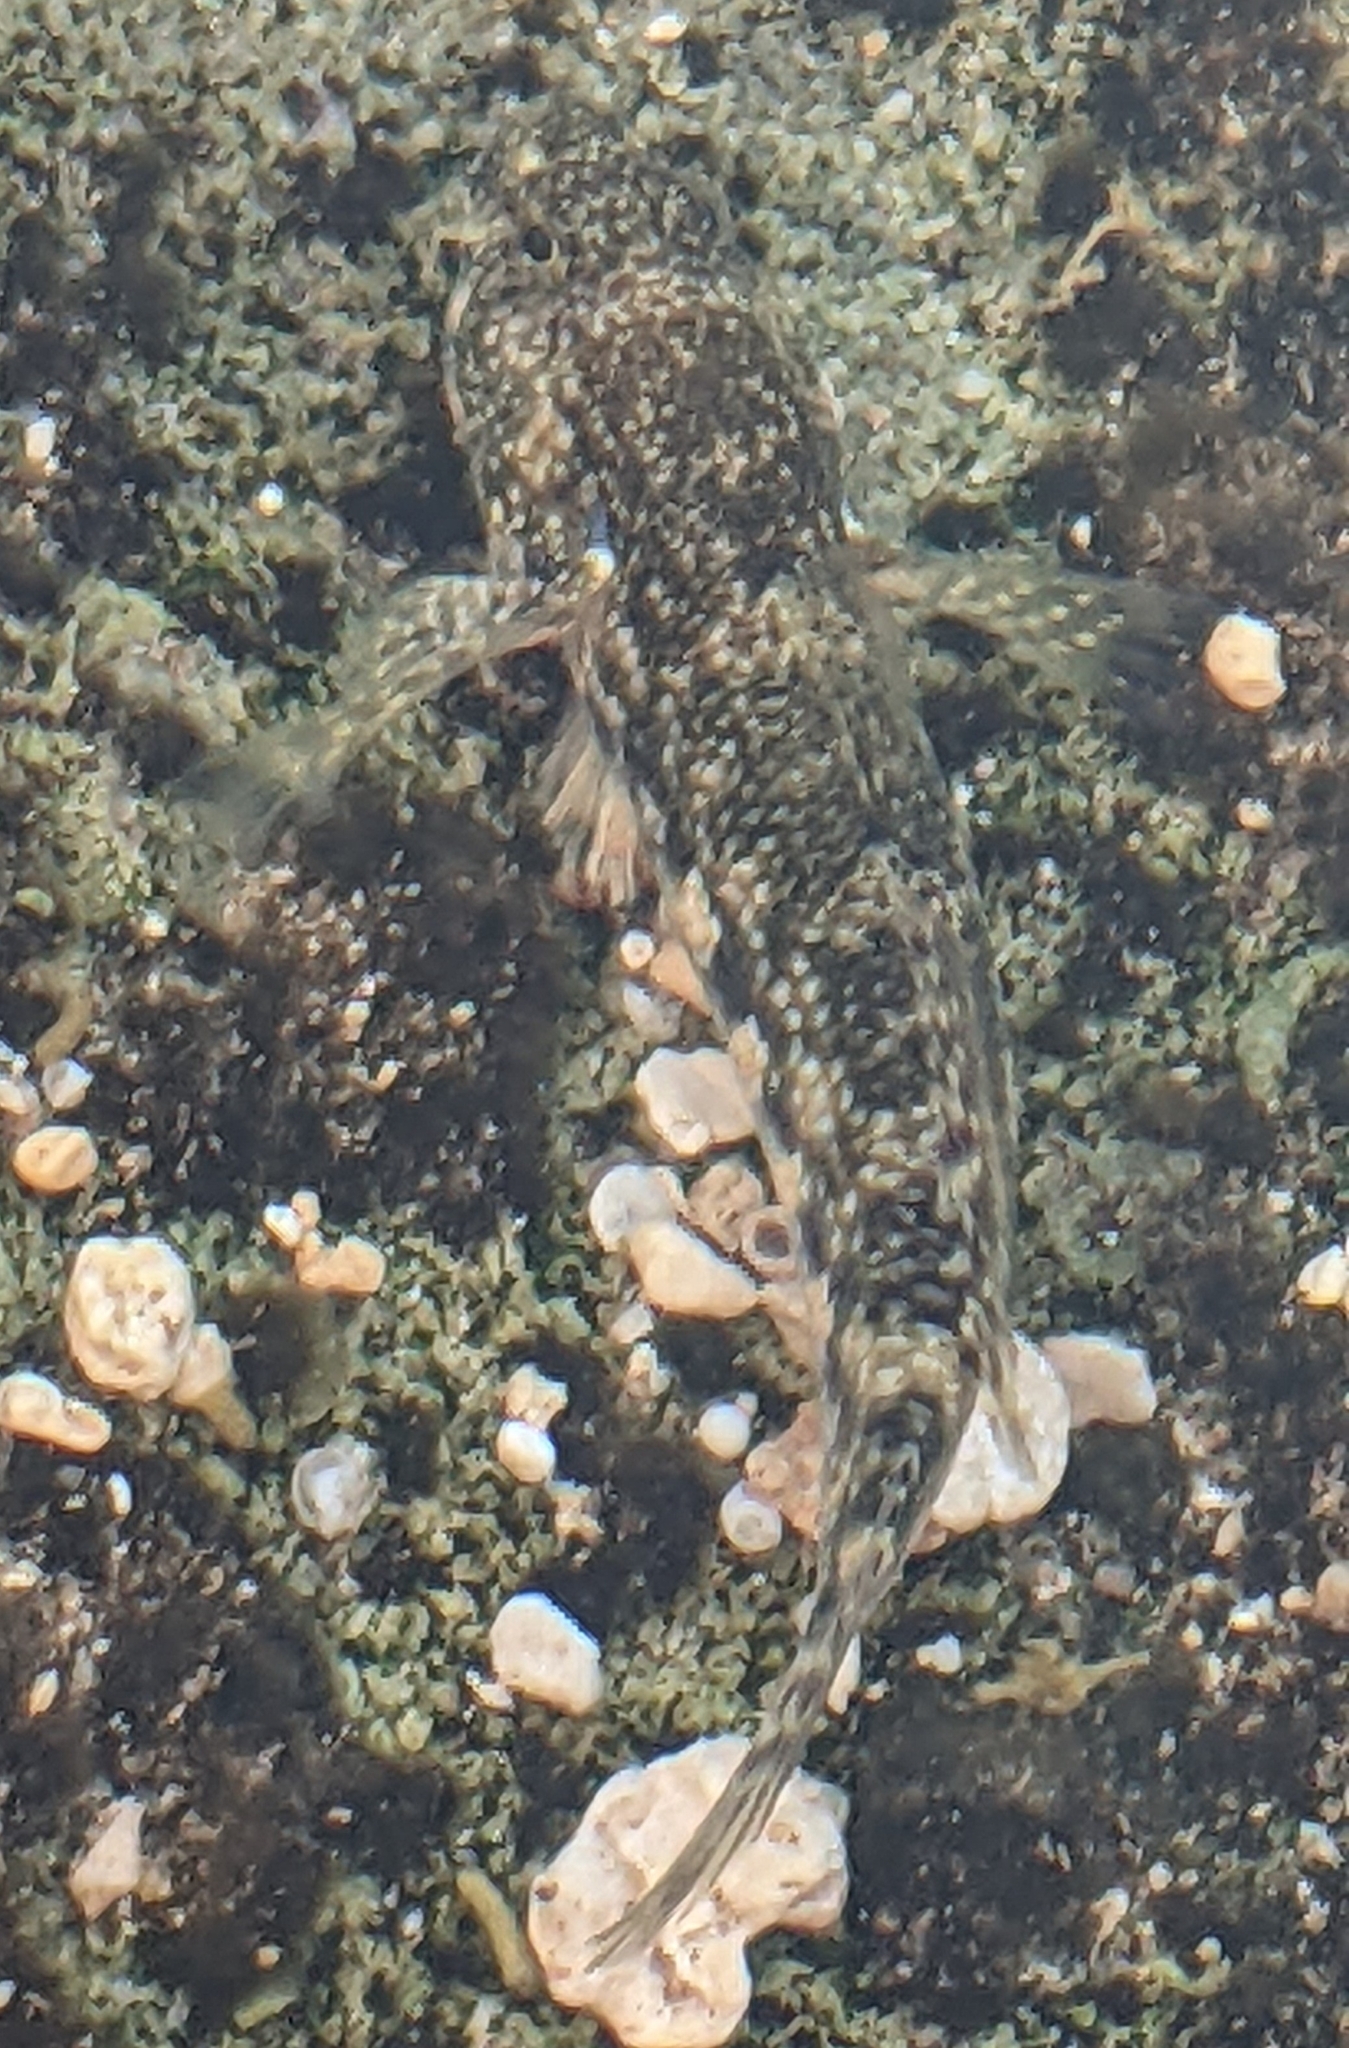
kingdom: Animalia
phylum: Chordata
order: Perciformes
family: Gobiidae
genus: Bathygobius
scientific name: Bathygobius coalitus
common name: Whitespotted goby
